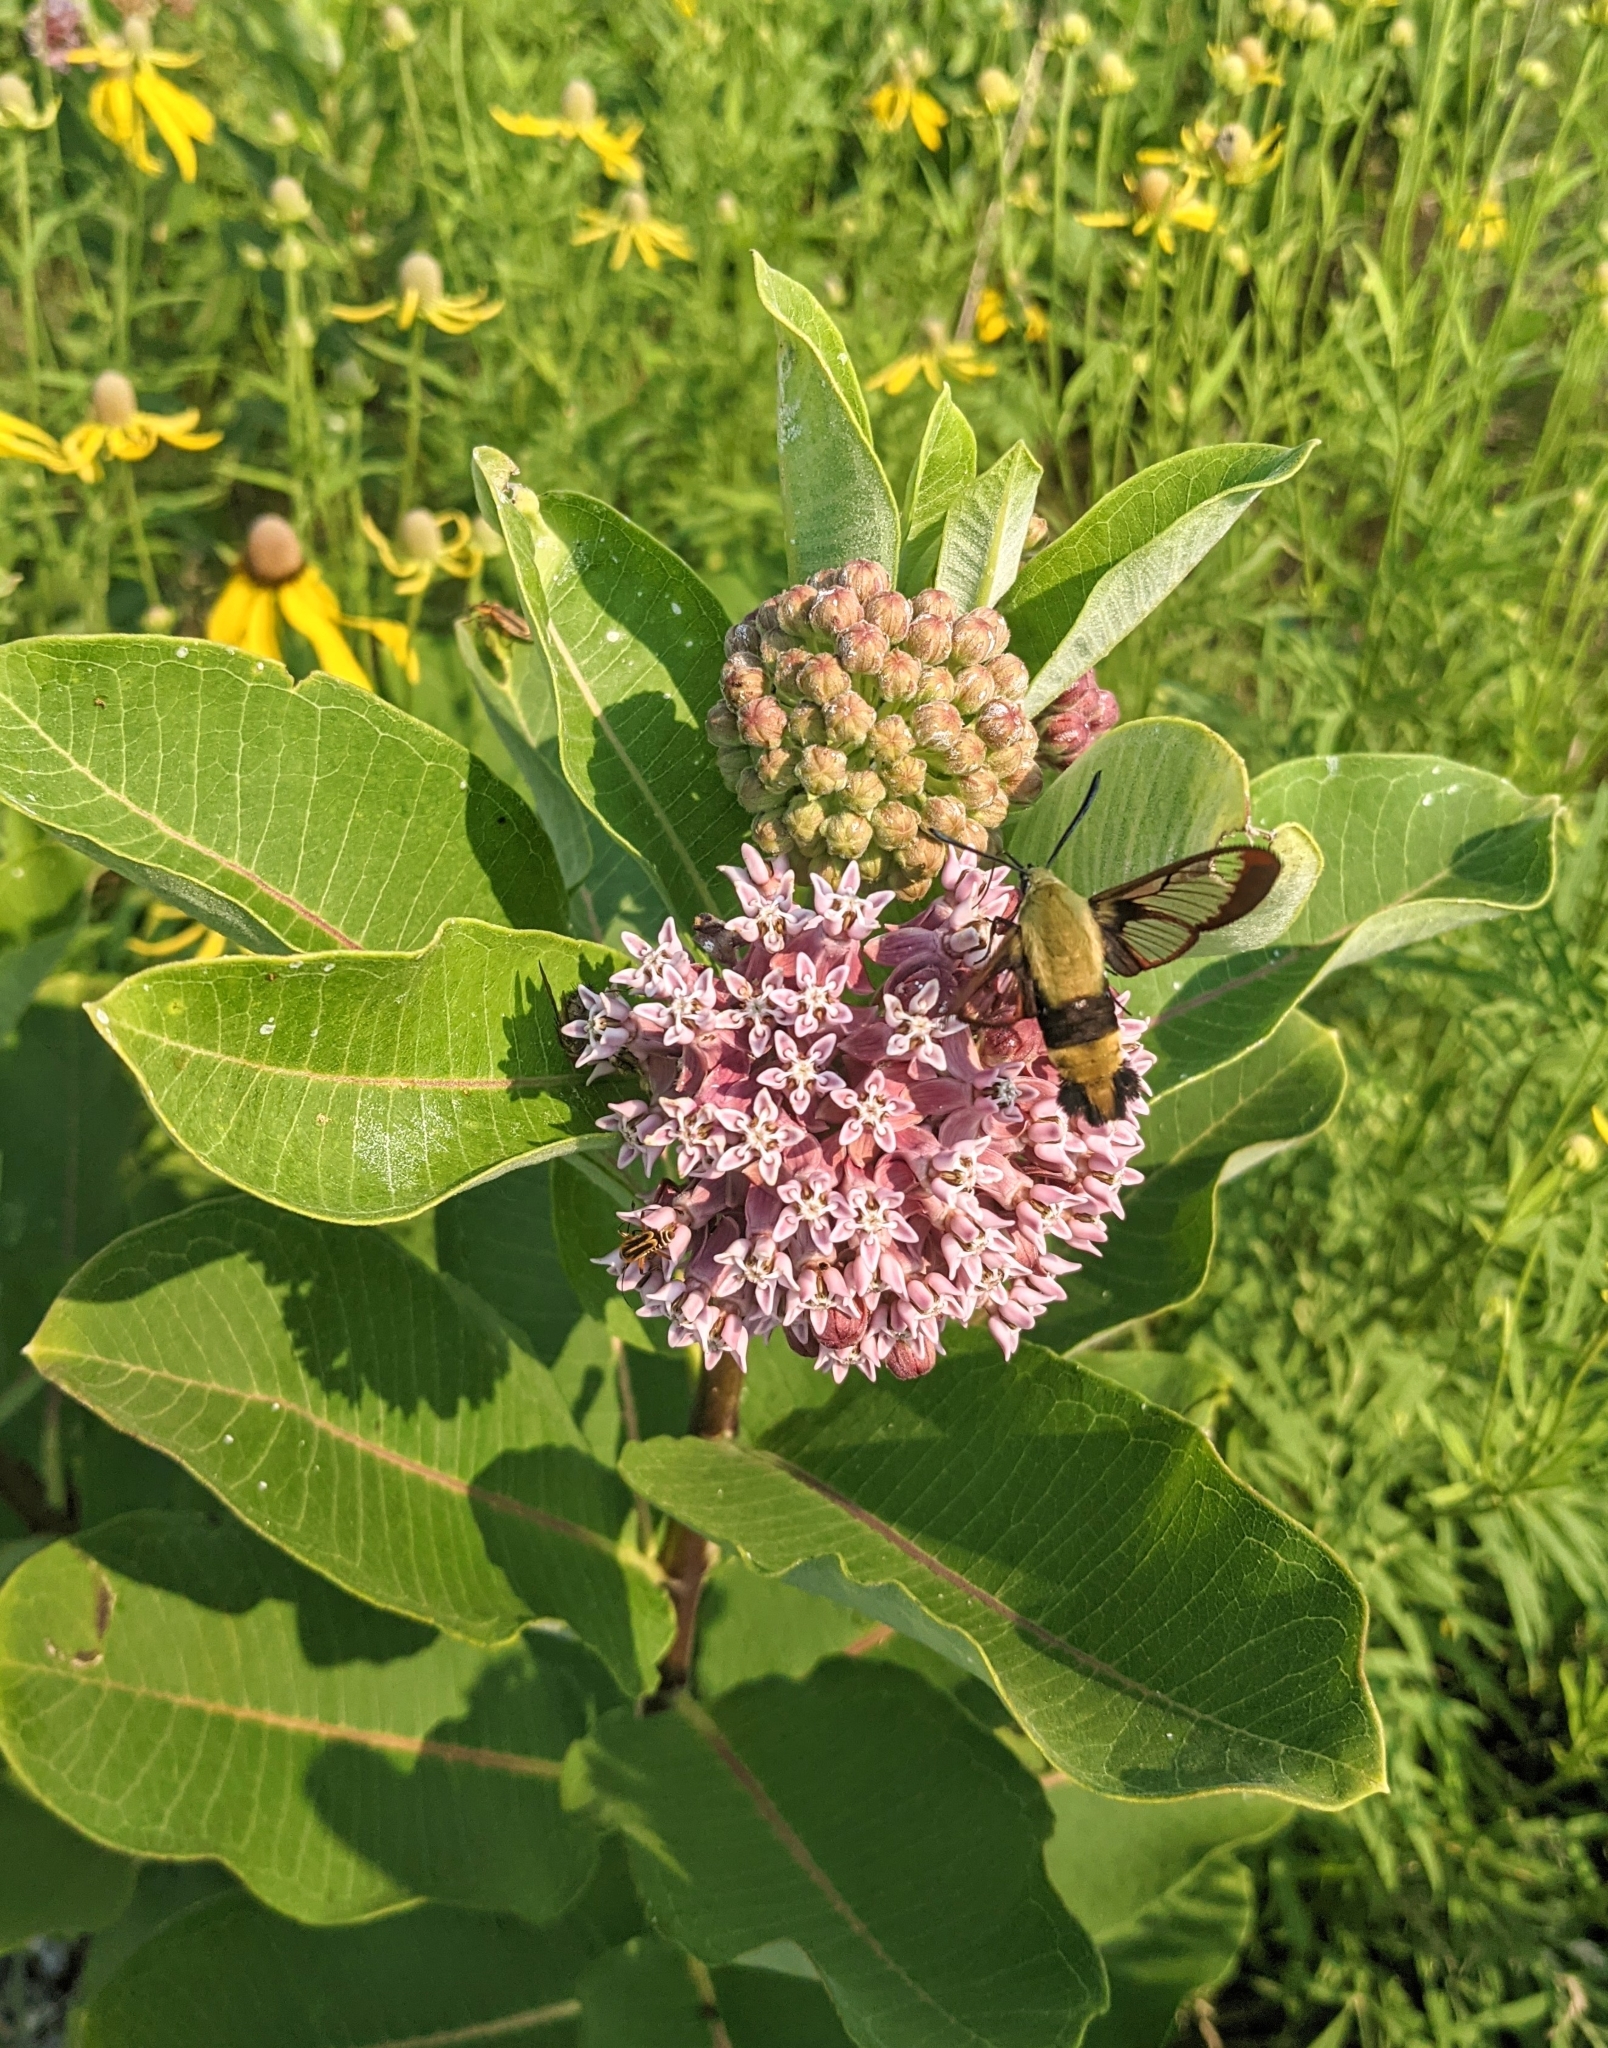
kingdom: Animalia
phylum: Arthropoda
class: Insecta
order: Lepidoptera
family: Sphingidae
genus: Hemaris
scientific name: Hemaris diffinis
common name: Bumblebee moth
